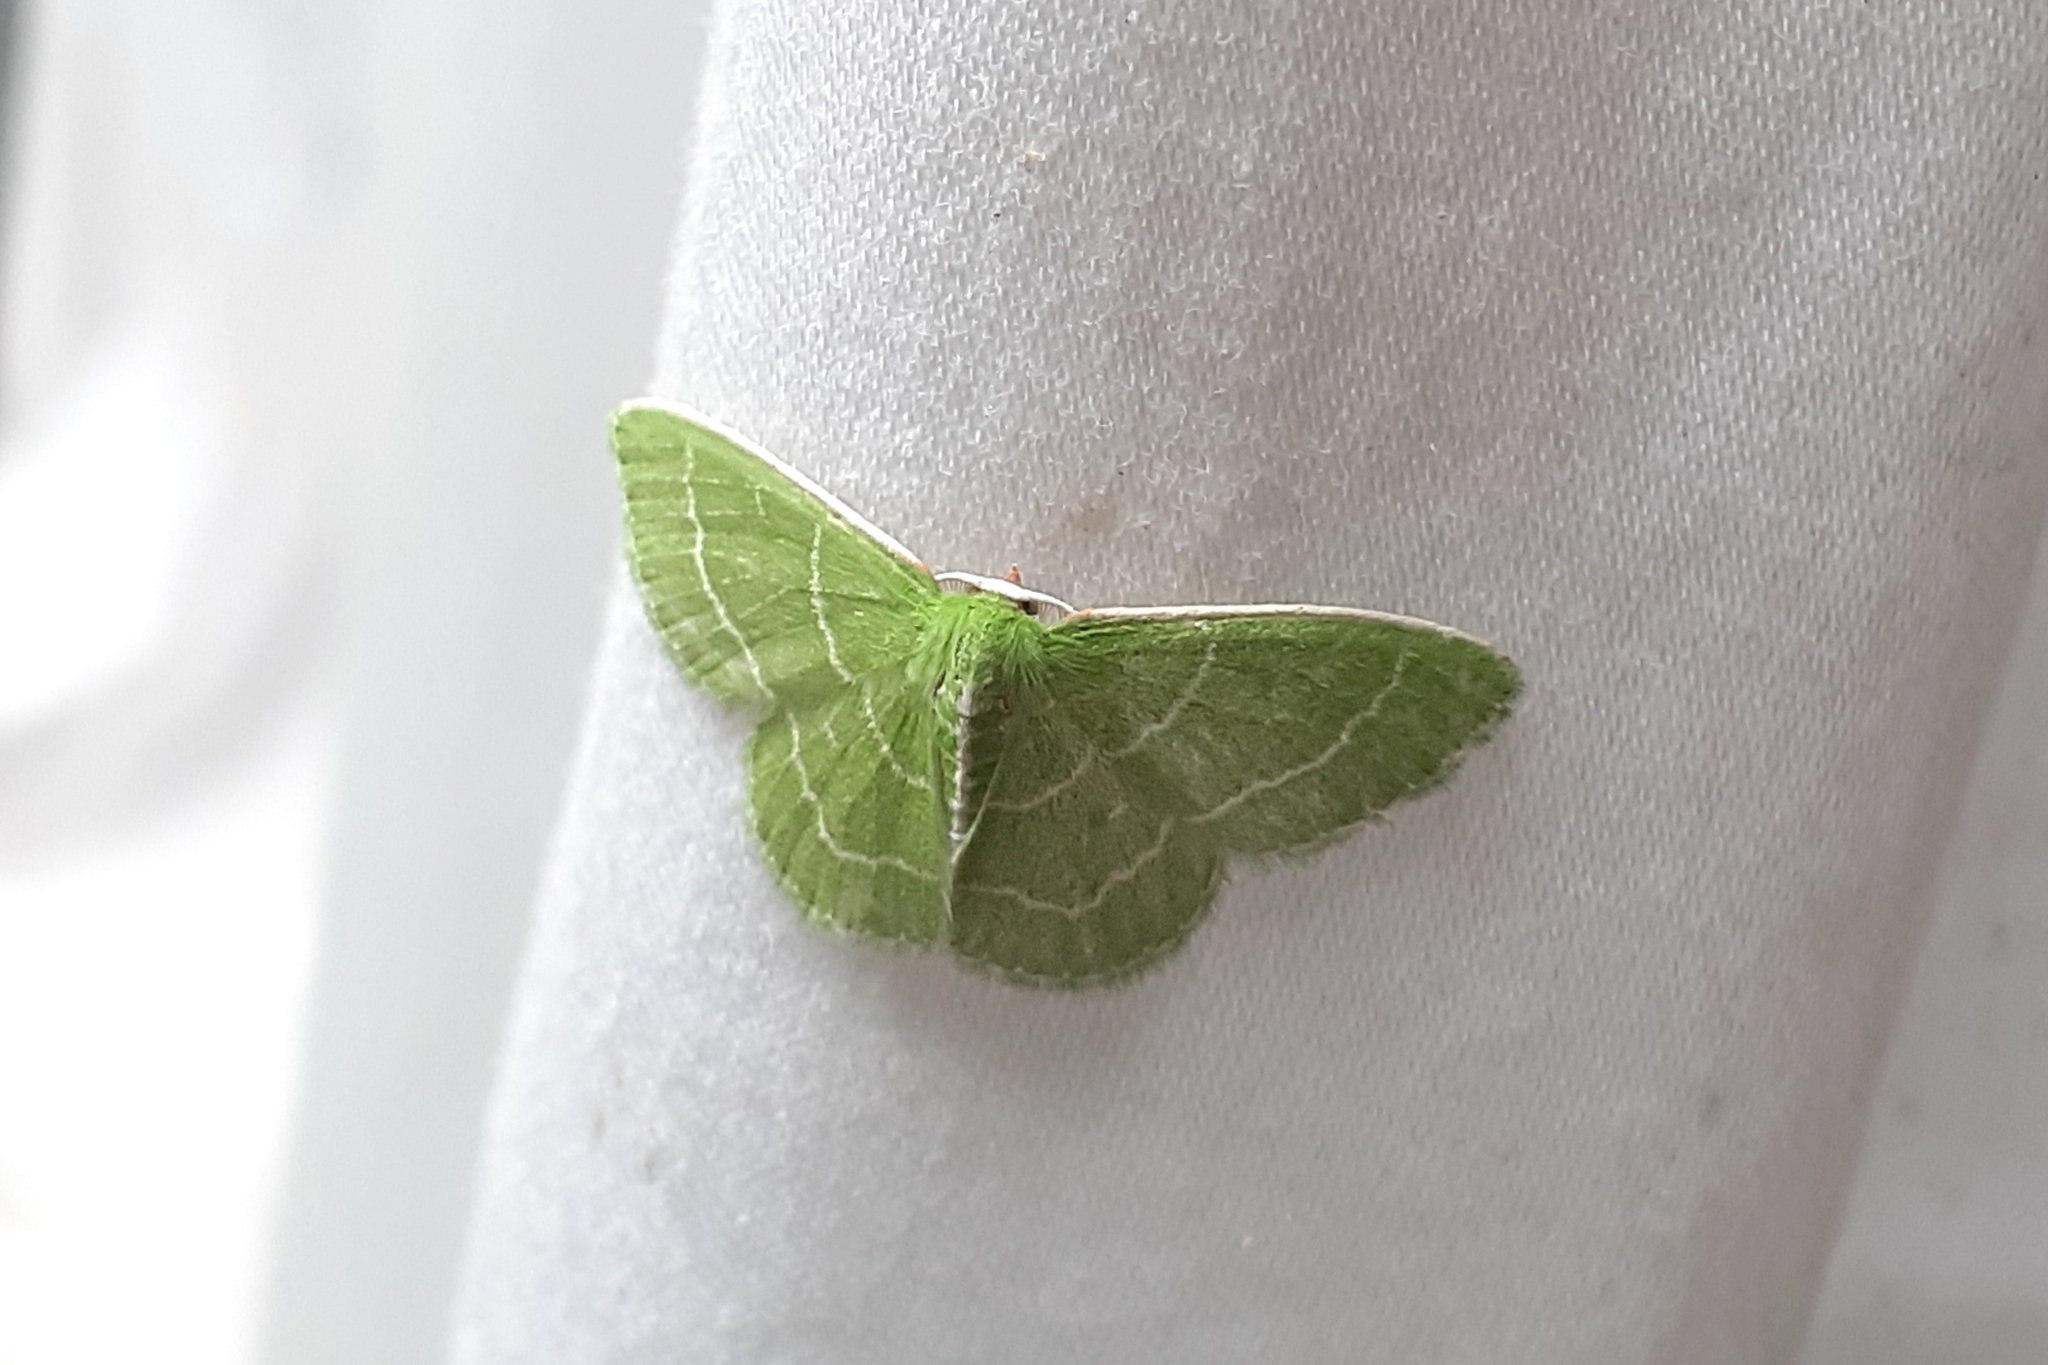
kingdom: Animalia
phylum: Arthropoda
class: Insecta
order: Lepidoptera
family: Geometridae
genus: Synchlora
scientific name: Synchlora aerata
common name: Wavy-lined emerald
